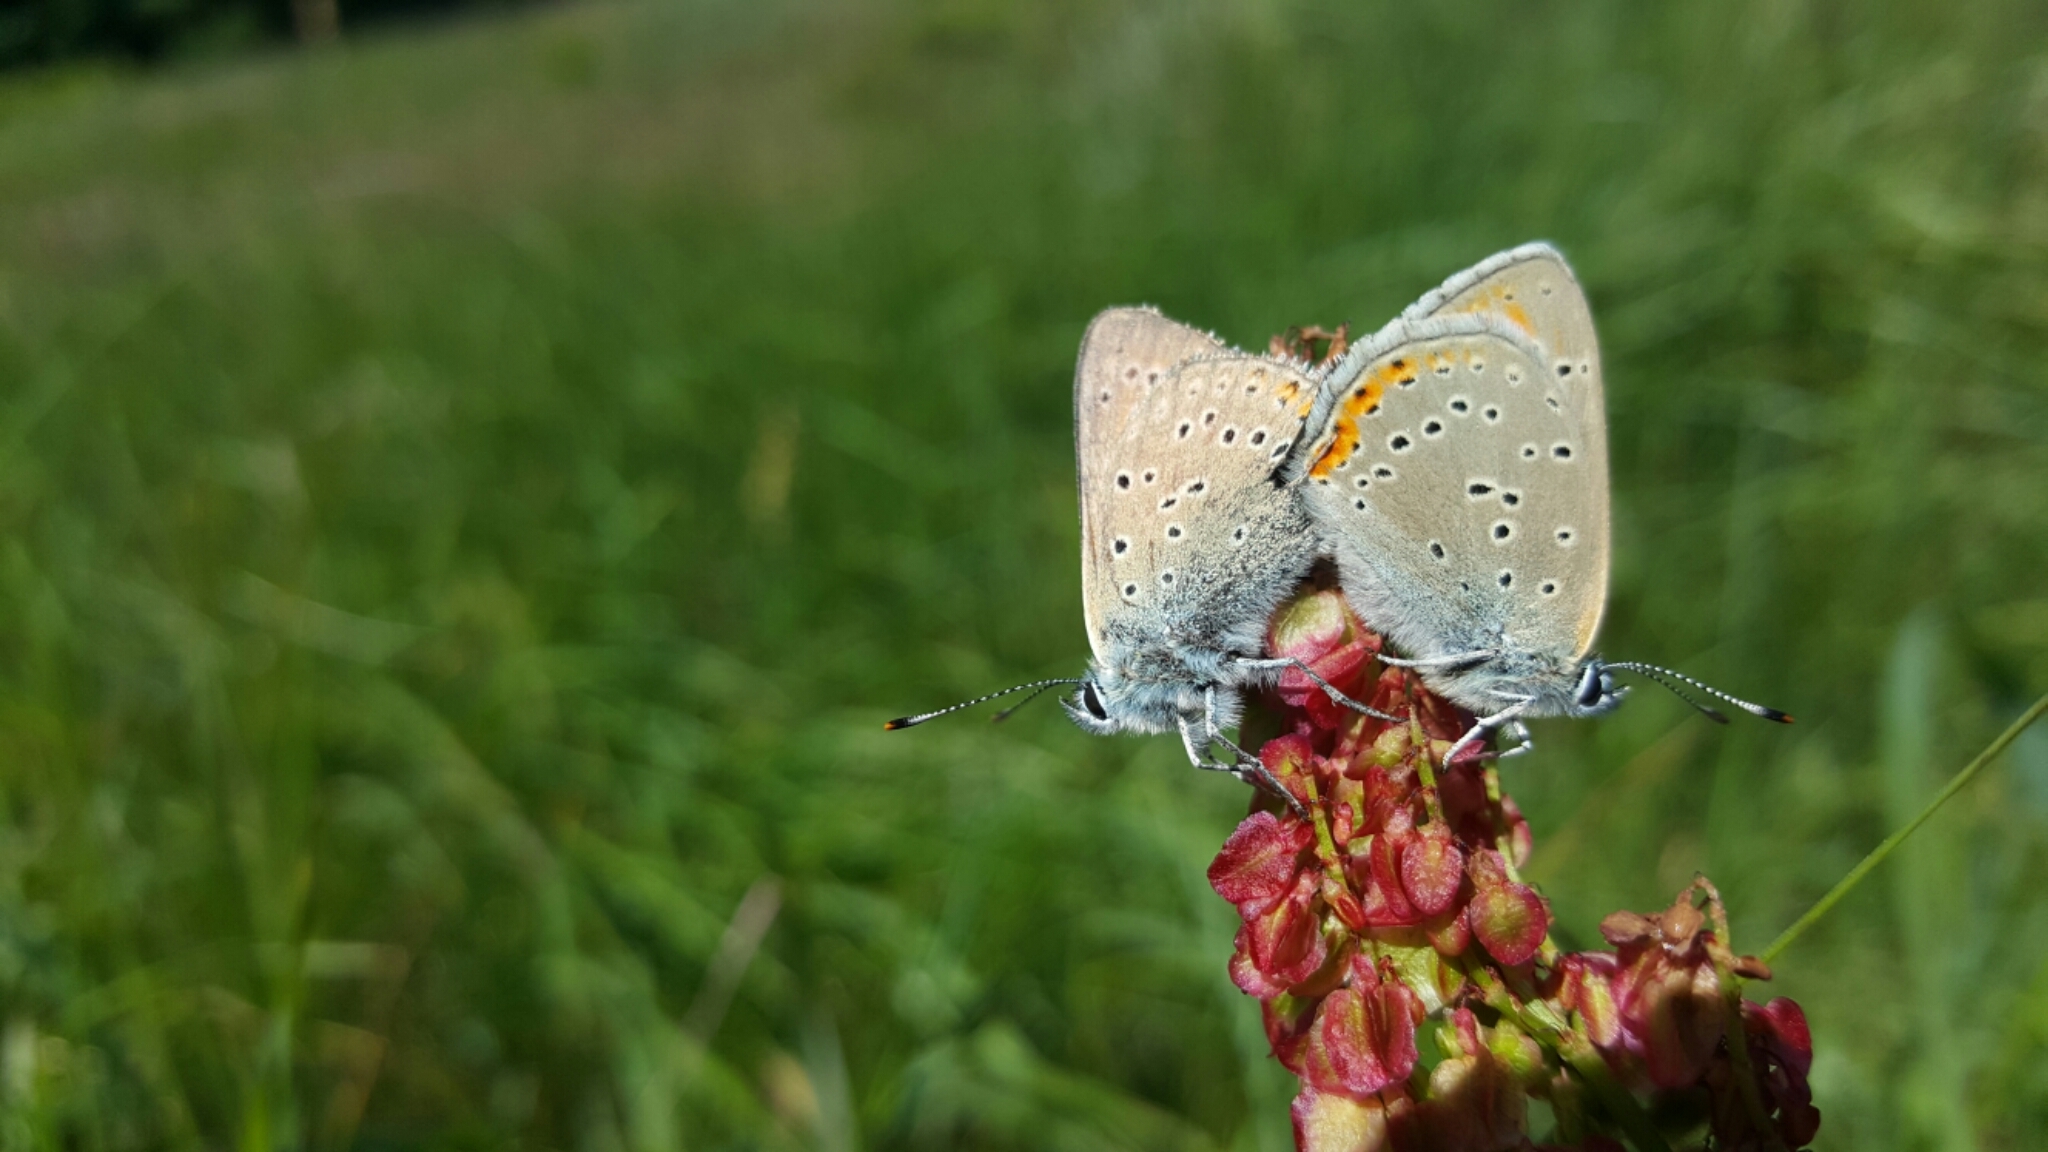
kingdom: Animalia
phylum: Arthropoda
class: Insecta
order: Lepidoptera
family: Lycaenidae
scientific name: Lycaenidae
